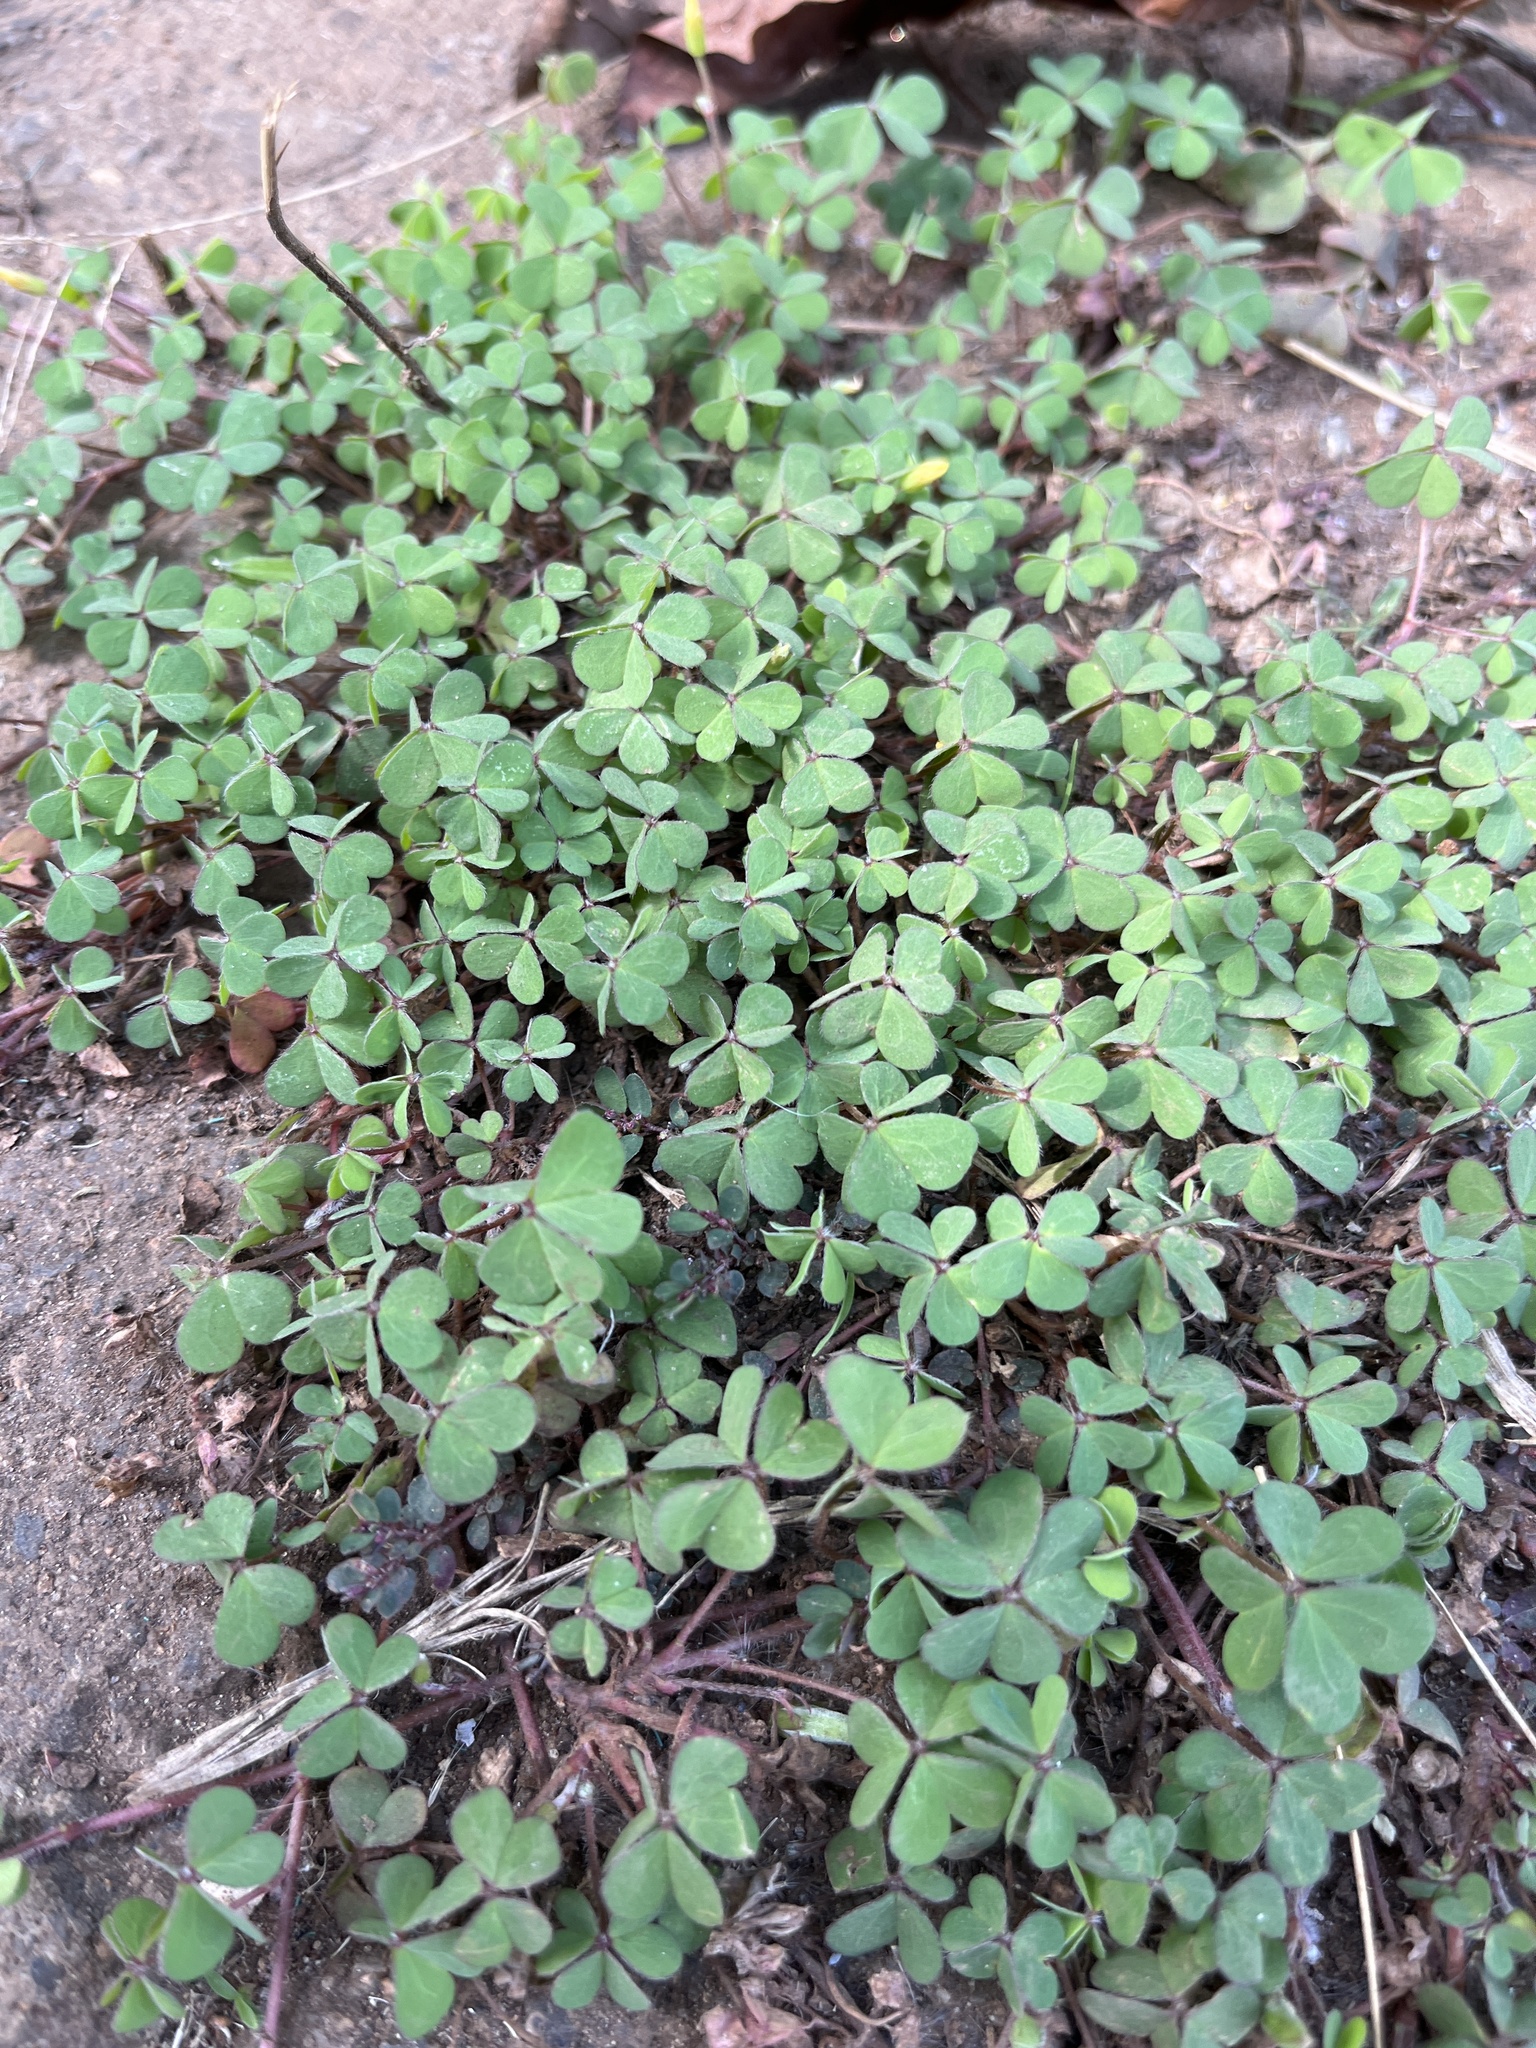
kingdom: Plantae
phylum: Tracheophyta
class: Magnoliopsida
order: Oxalidales
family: Oxalidaceae
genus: Oxalis
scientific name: Oxalis corniculata
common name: Procumbent yellow-sorrel
